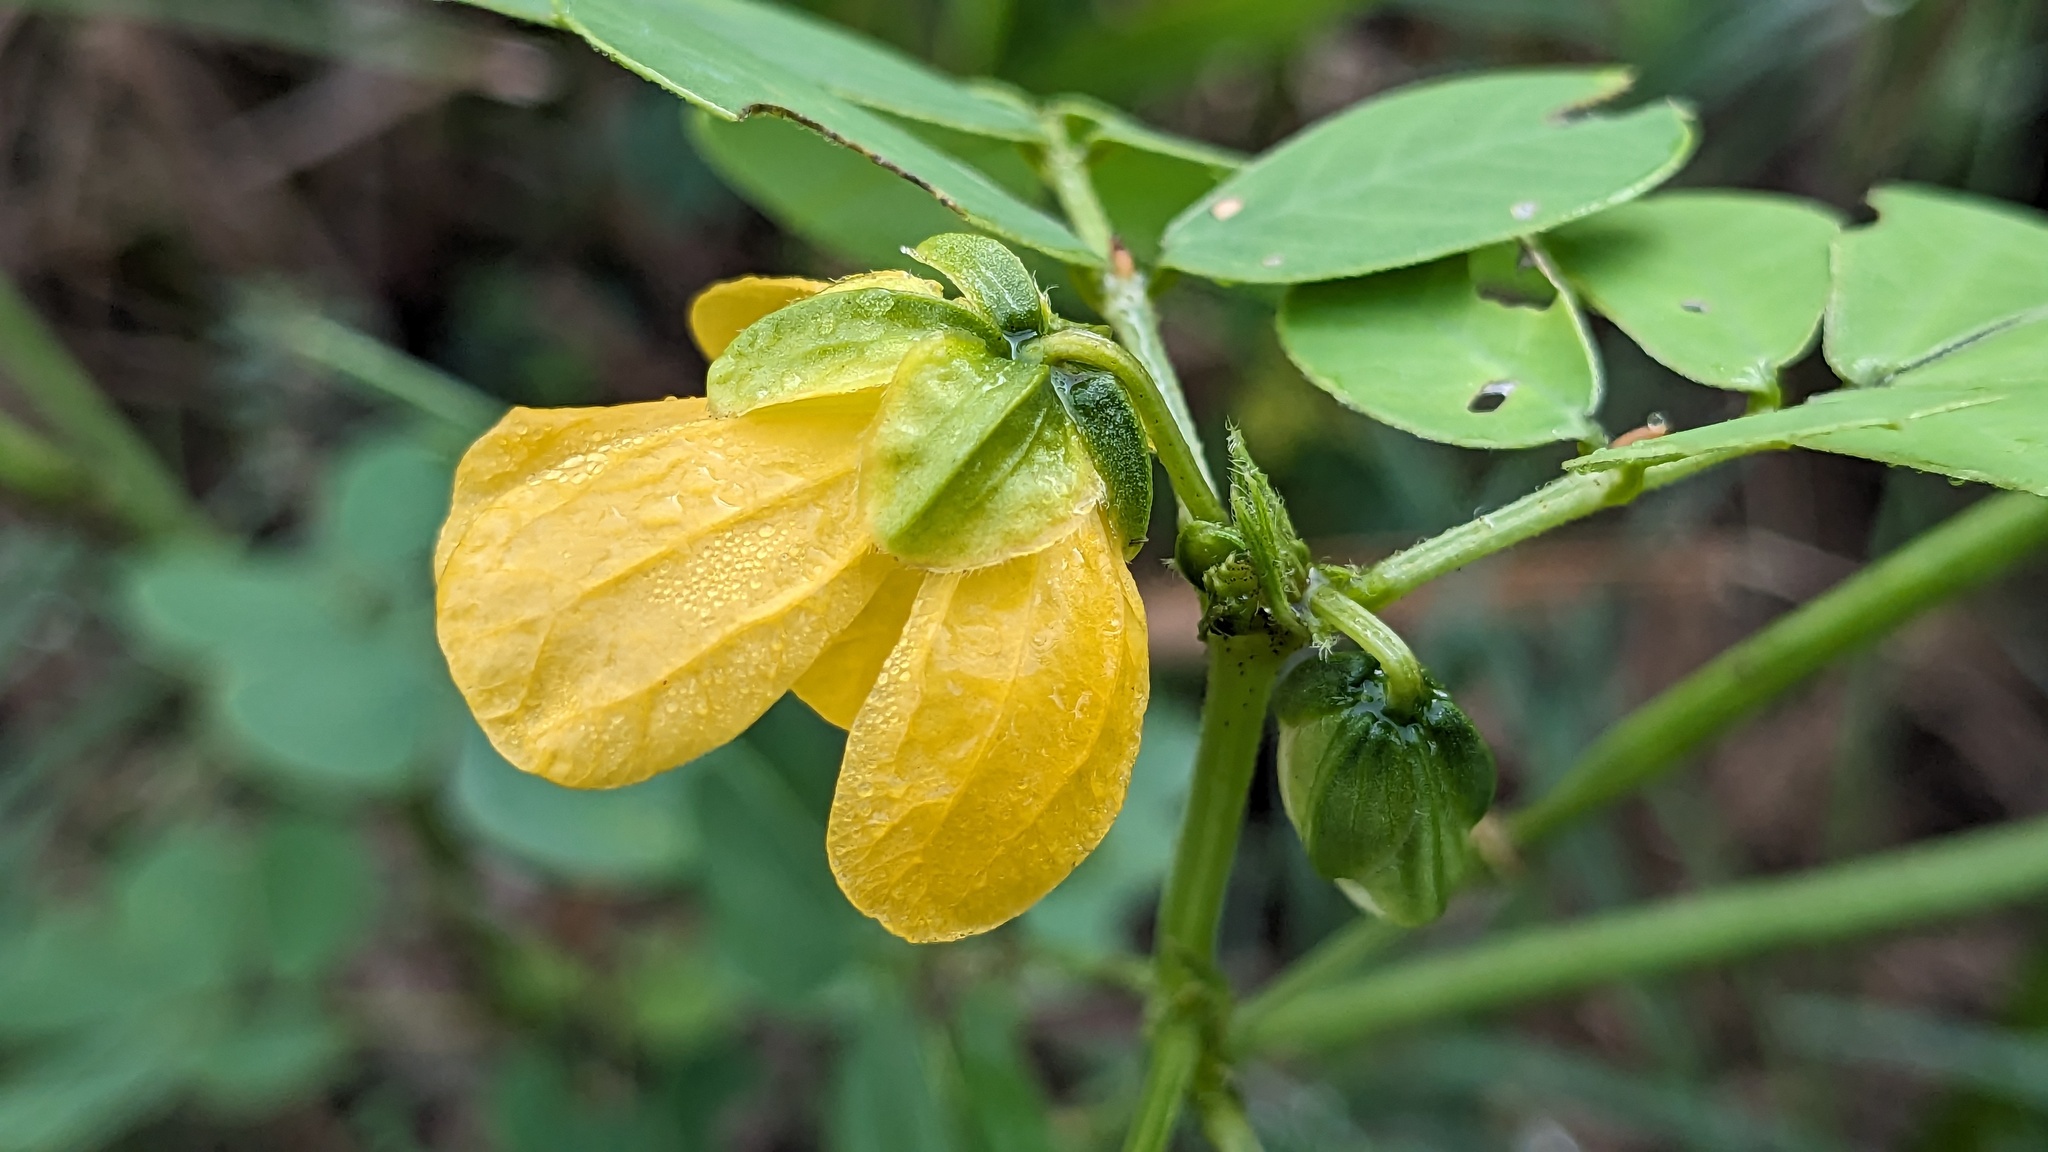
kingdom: Plantae
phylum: Tracheophyta
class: Magnoliopsida
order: Fabales
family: Fabaceae
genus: Senna
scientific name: Senna obtusifolia
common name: Java-bean
